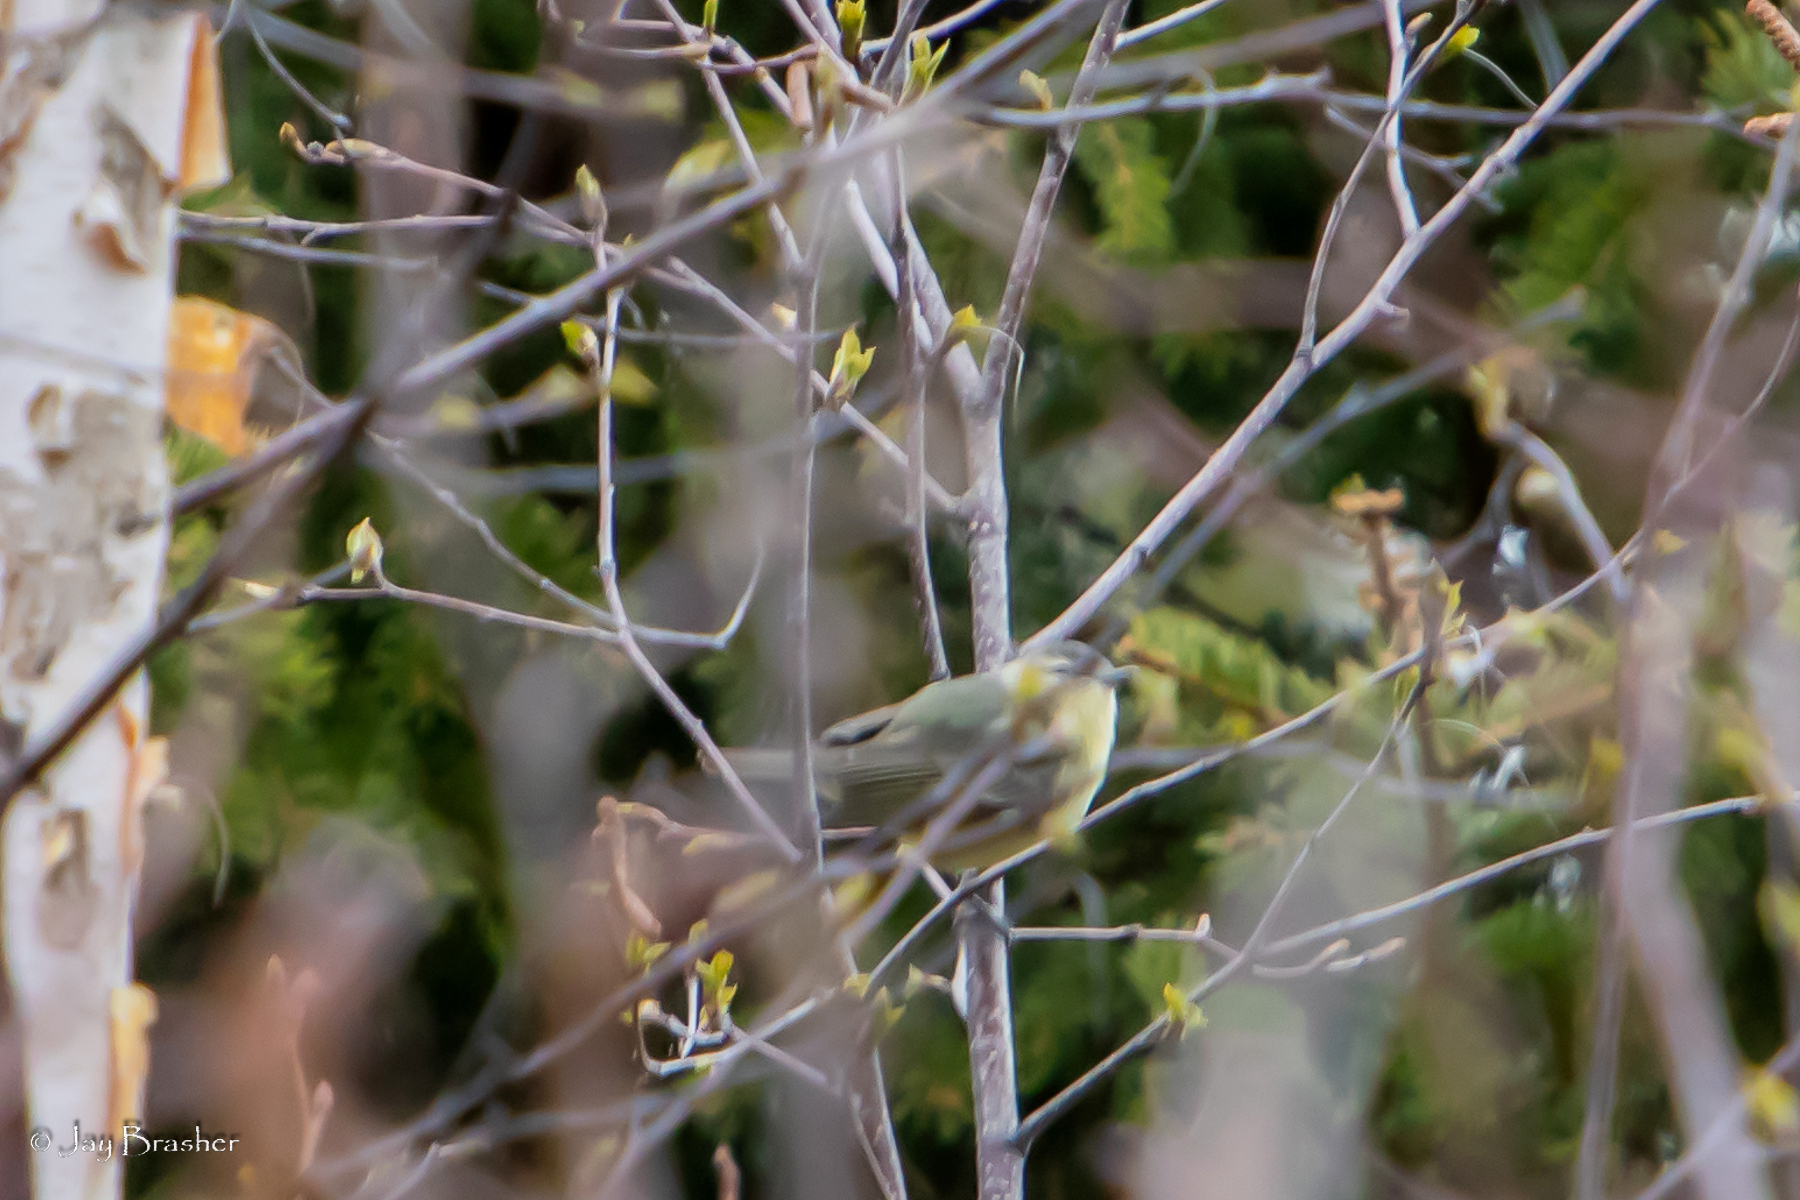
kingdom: Animalia
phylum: Chordata
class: Aves
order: Passeriformes
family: Parulidae
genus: Leiothlypis
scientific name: Leiothlypis peregrina
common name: Tennessee warbler
